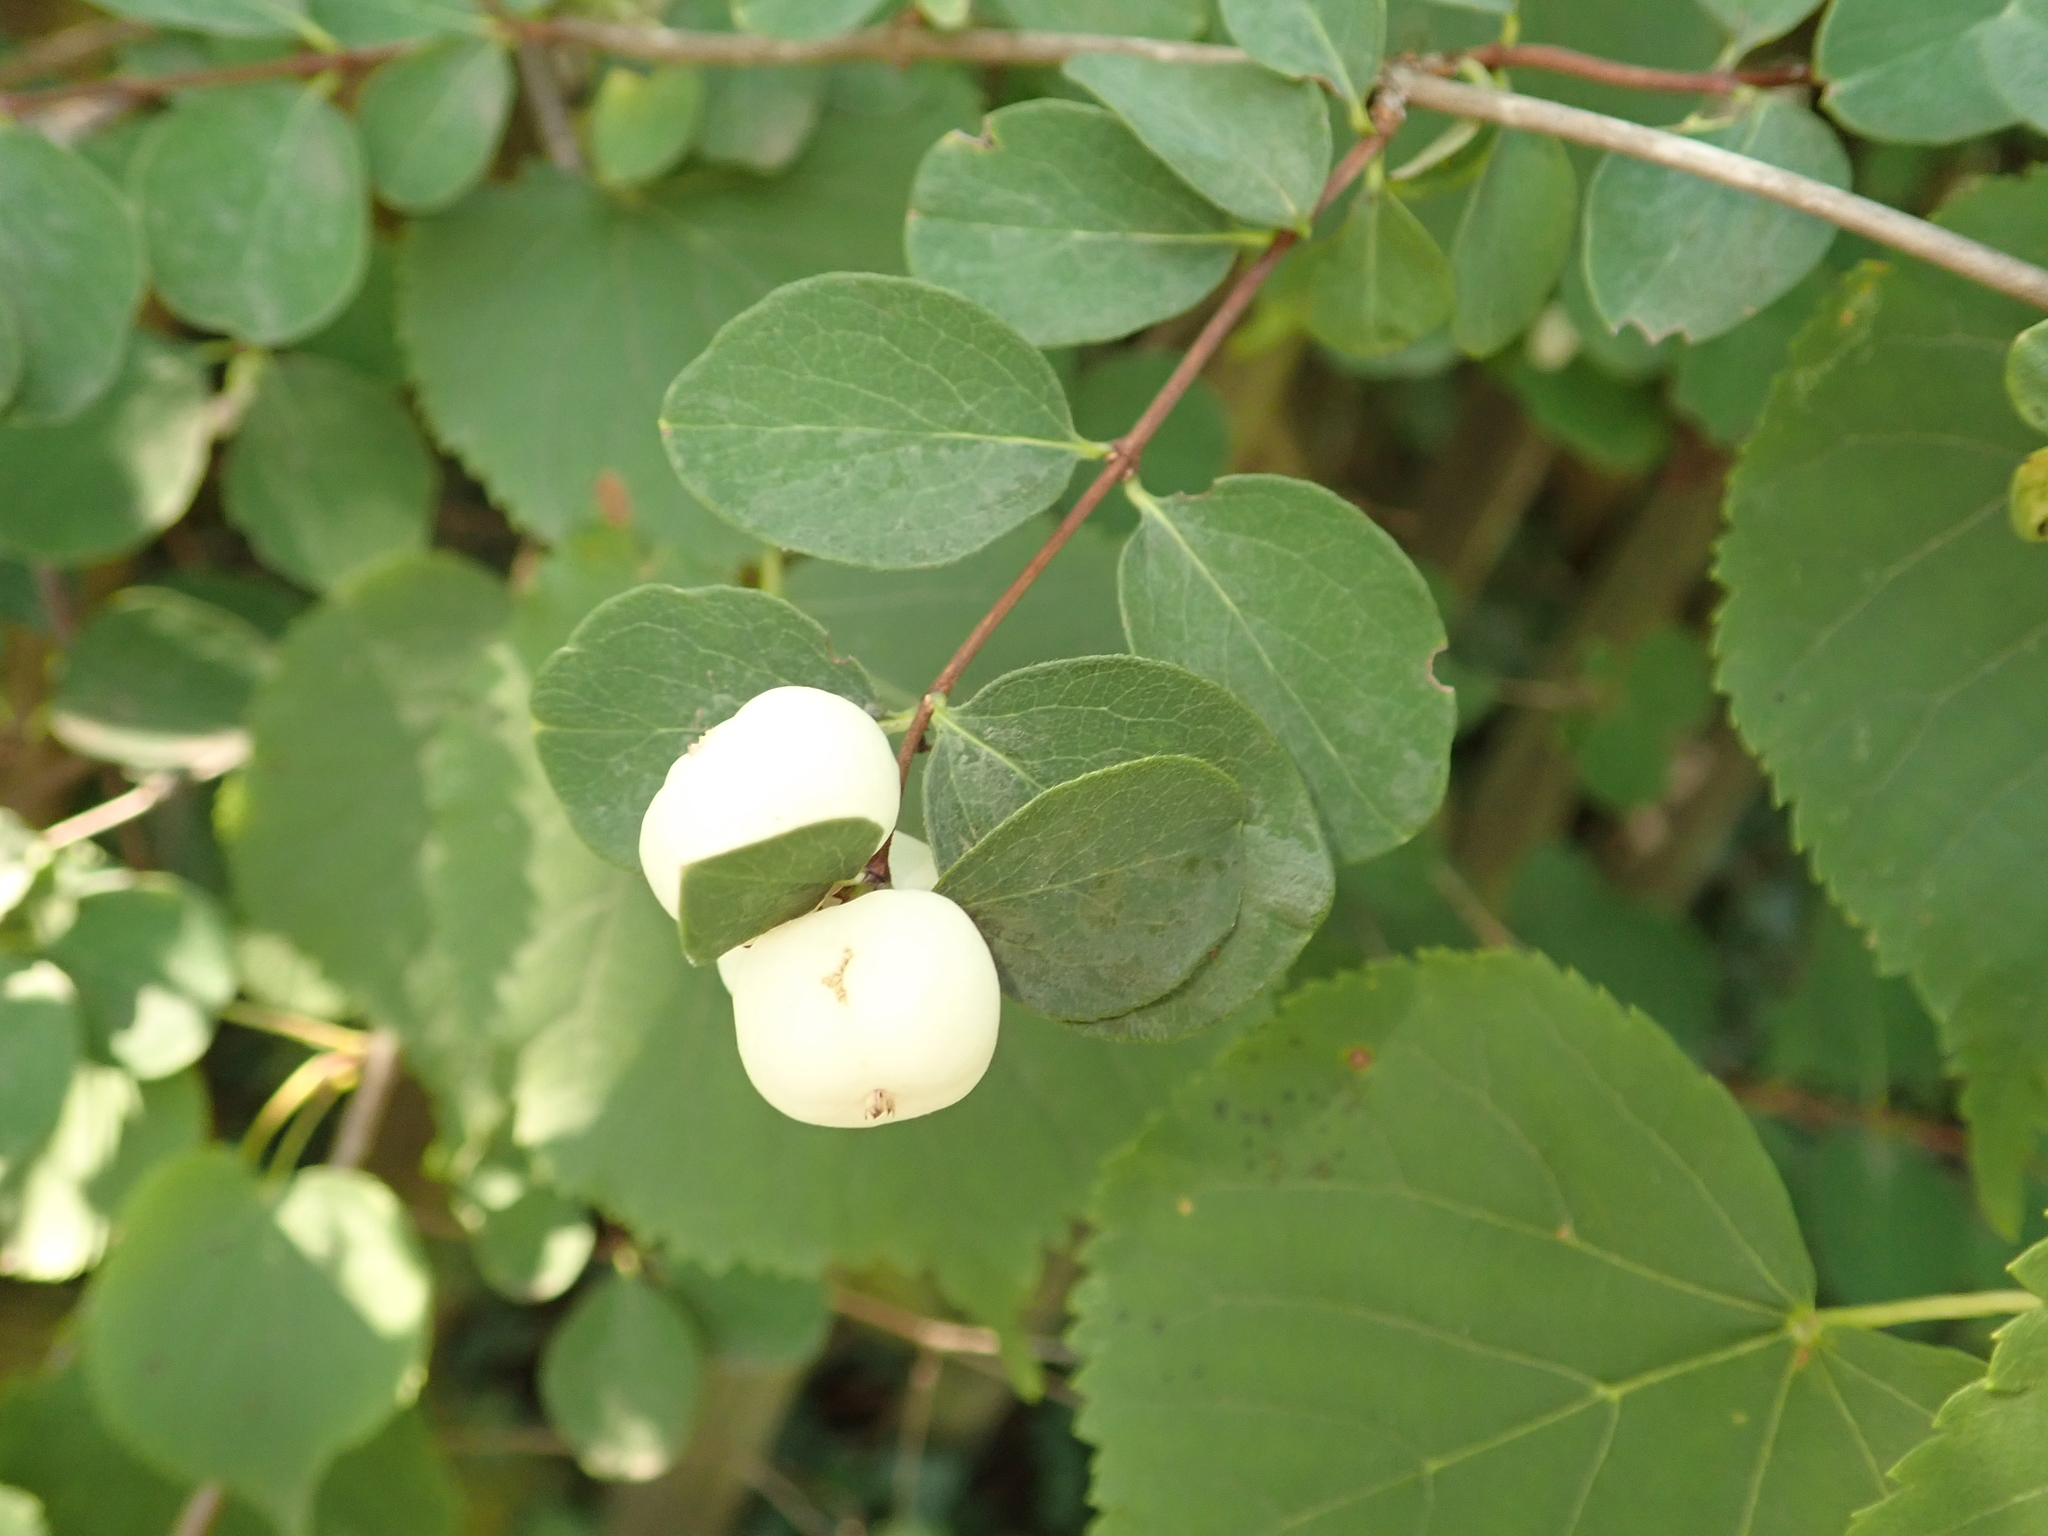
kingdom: Plantae
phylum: Tracheophyta
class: Magnoliopsida
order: Dipsacales
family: Caprifoliaceae
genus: Symphoricarpos
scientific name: Symphoricarpos albus
